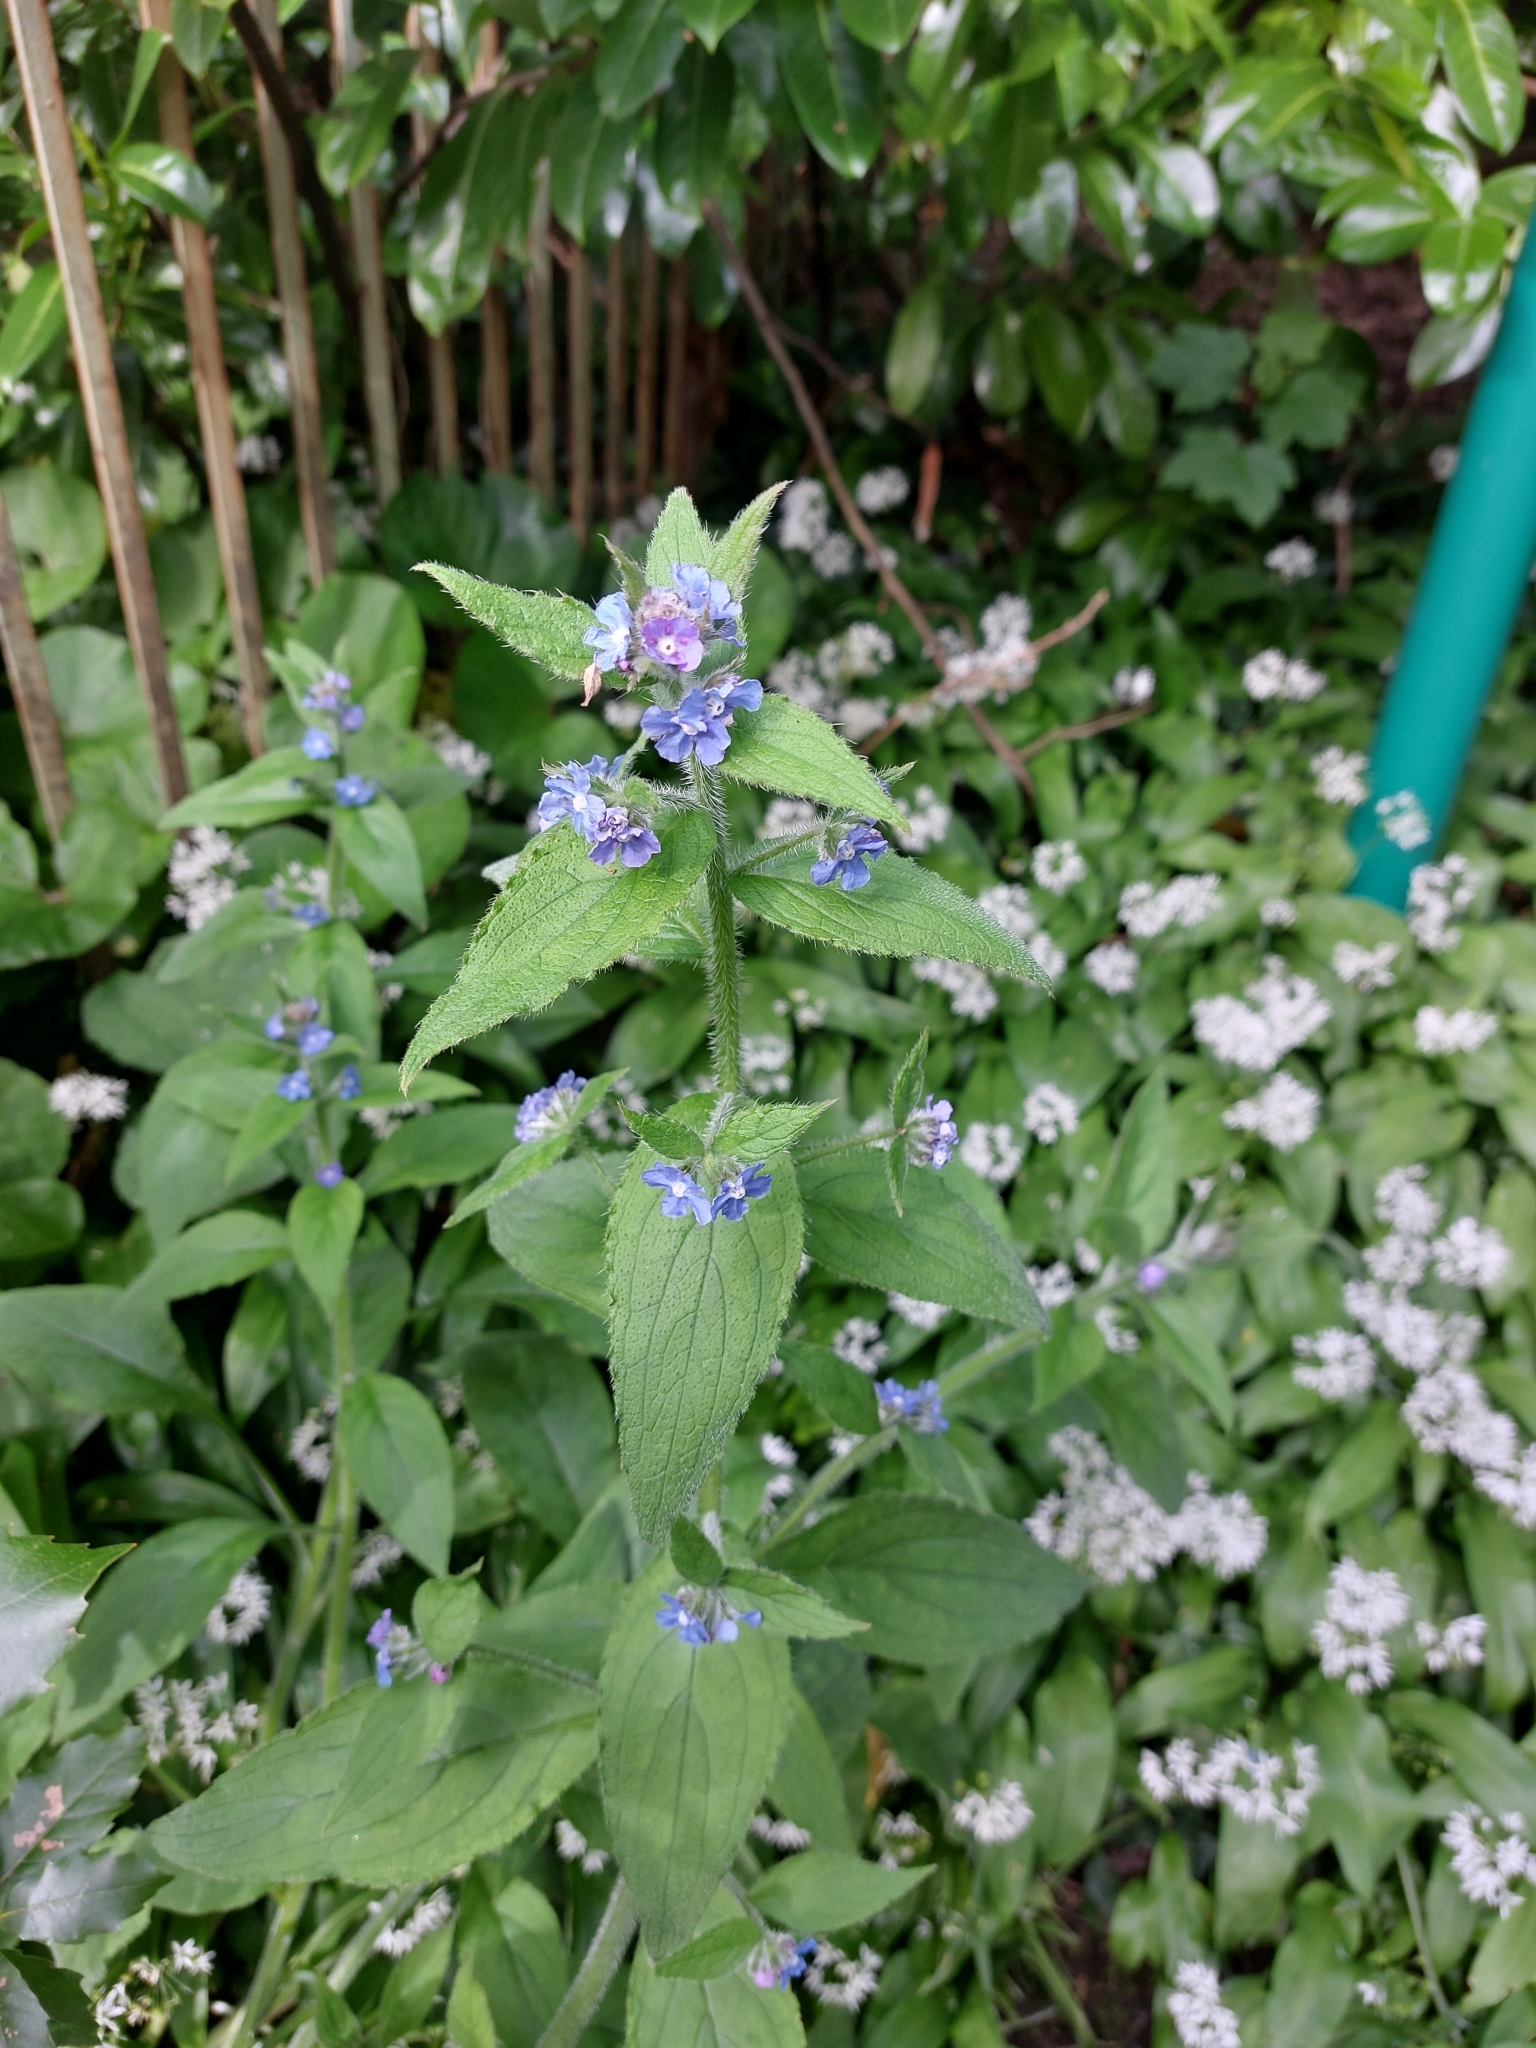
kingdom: Plantae
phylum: Tracheophyta
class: Magnoliopsida
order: Boraginales
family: Boraginaceae
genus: Pentaglottis
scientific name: Pentaglottis sempervirens
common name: Green alkanet
